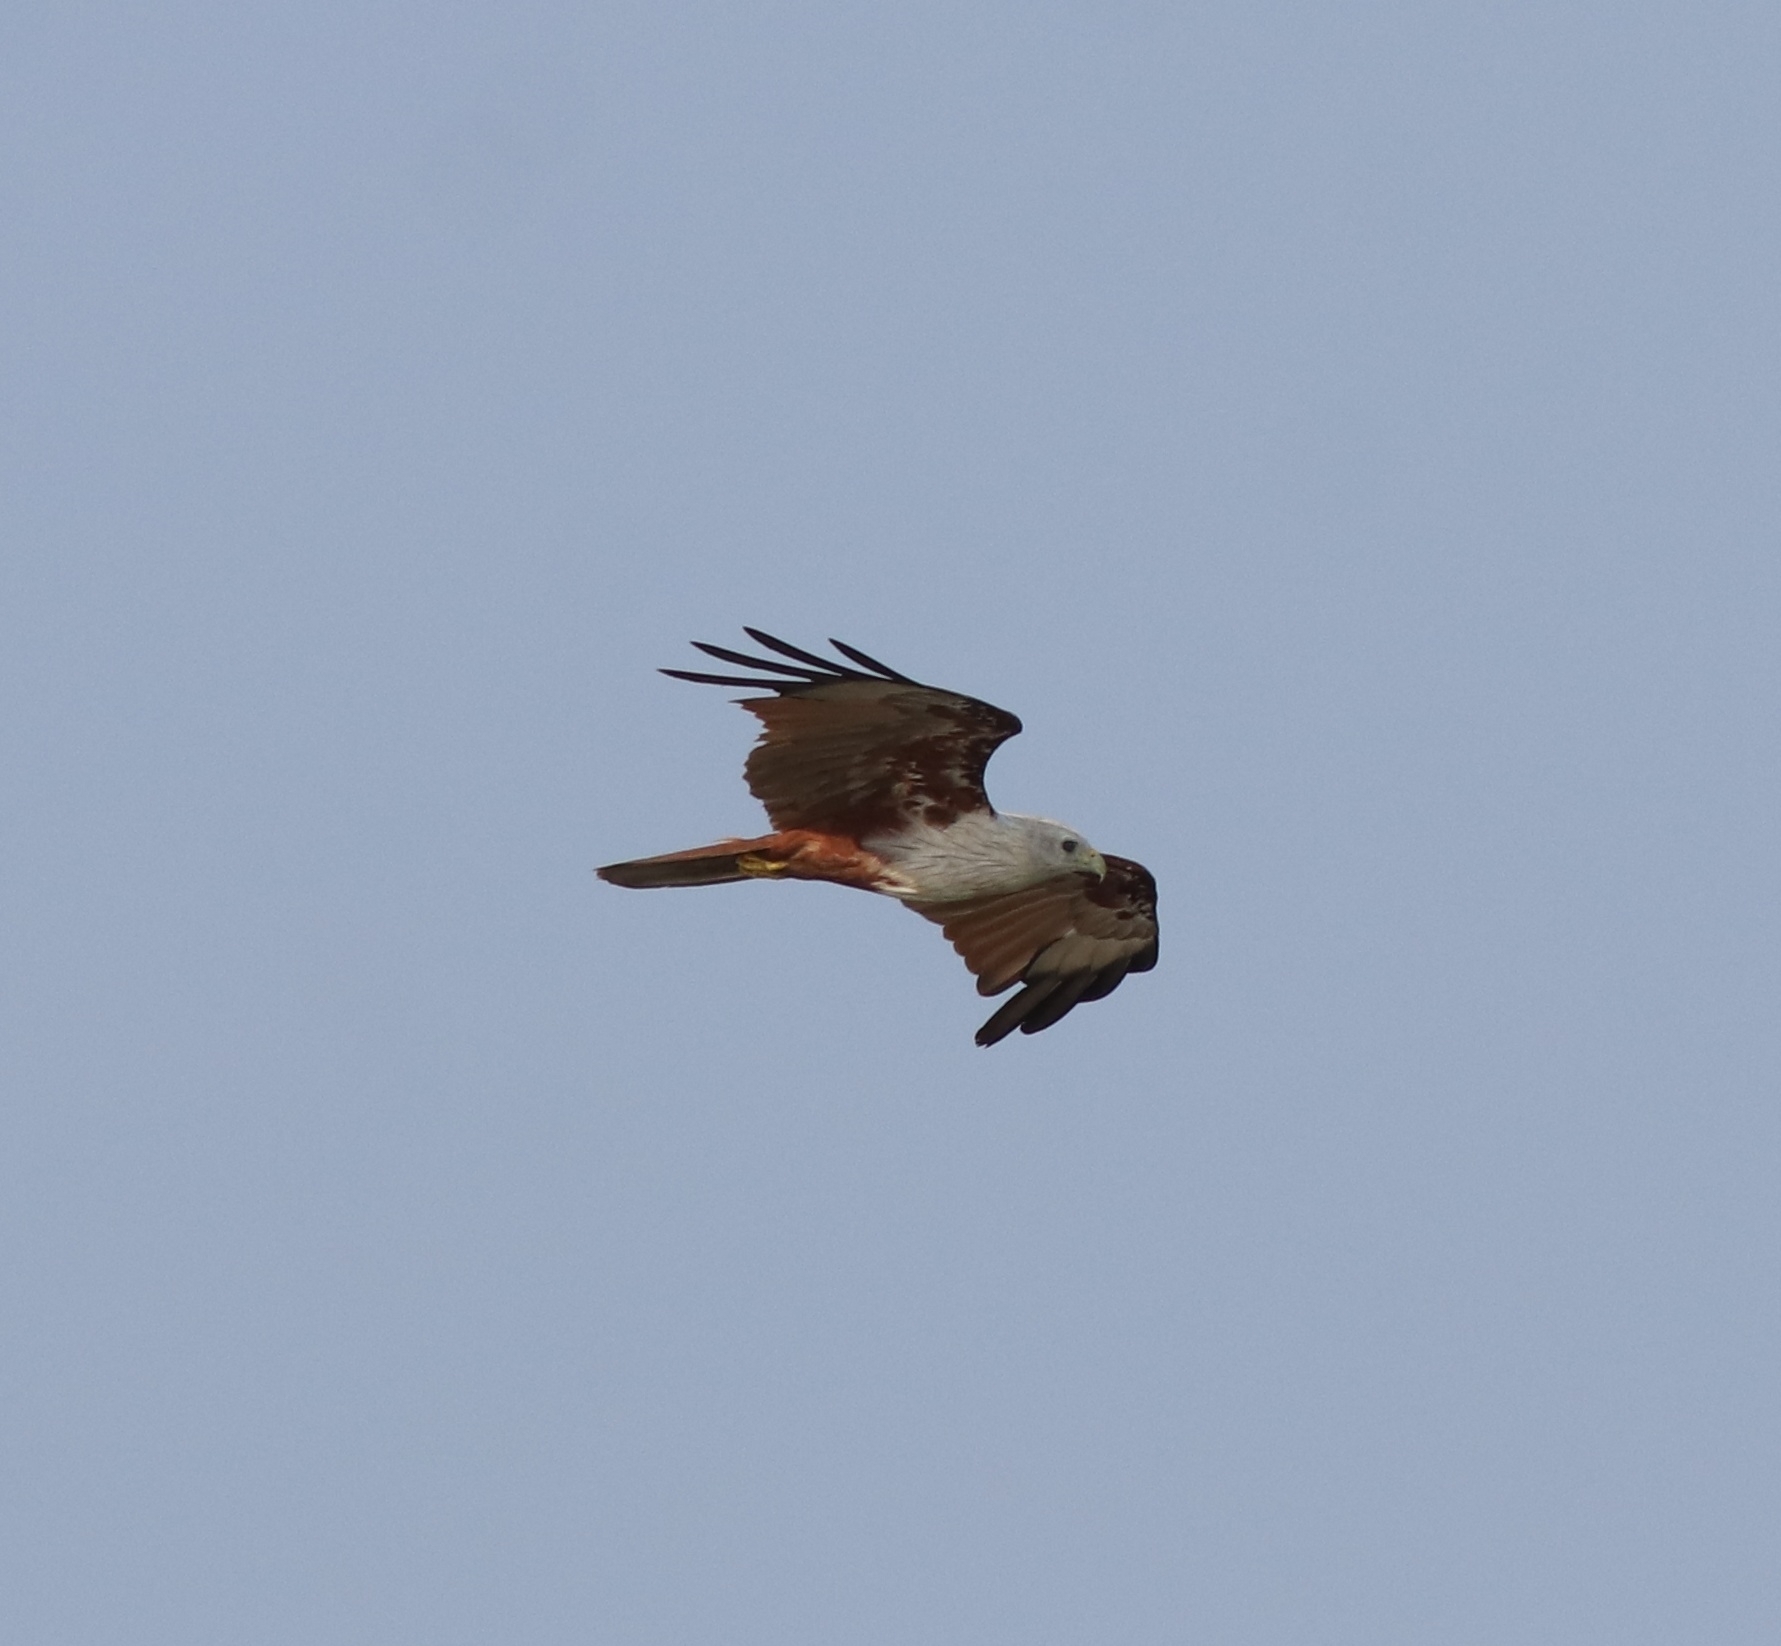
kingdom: Animalia
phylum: Chordata
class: Aves
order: Accipitriformes
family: Accipitridae
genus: Haliastur
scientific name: Haliastur indus
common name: Brahminy kite
